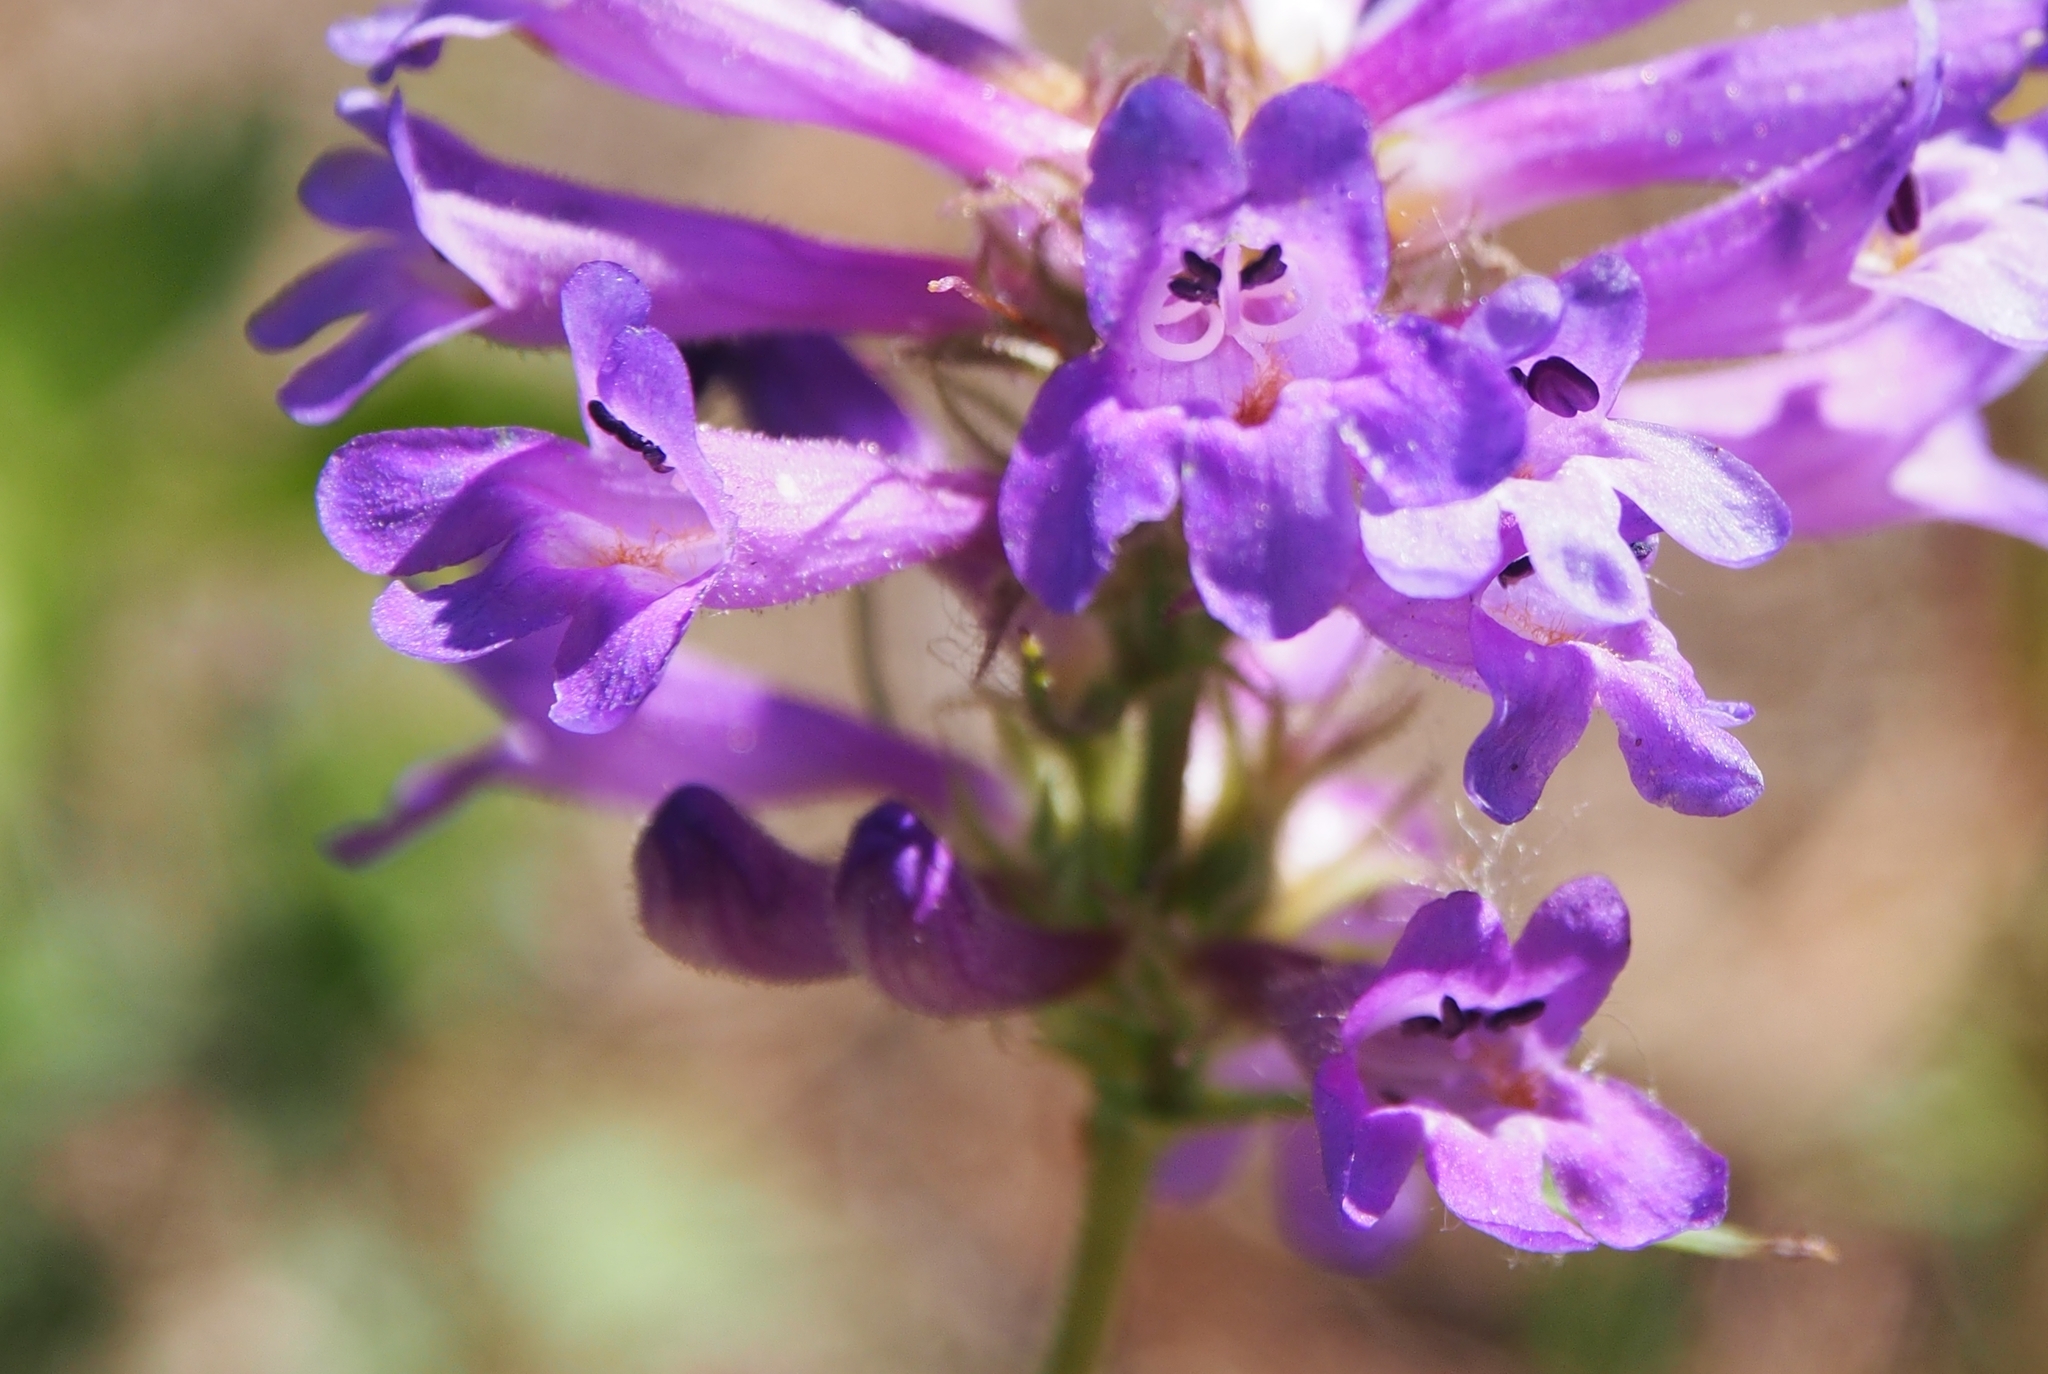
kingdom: Plantae
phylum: Tracheophyta
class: Magnoliopsida
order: Lamiales
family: Plantaginaceae
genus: Penstemon
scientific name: Penstemon procerus
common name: Small-flower penstemon
